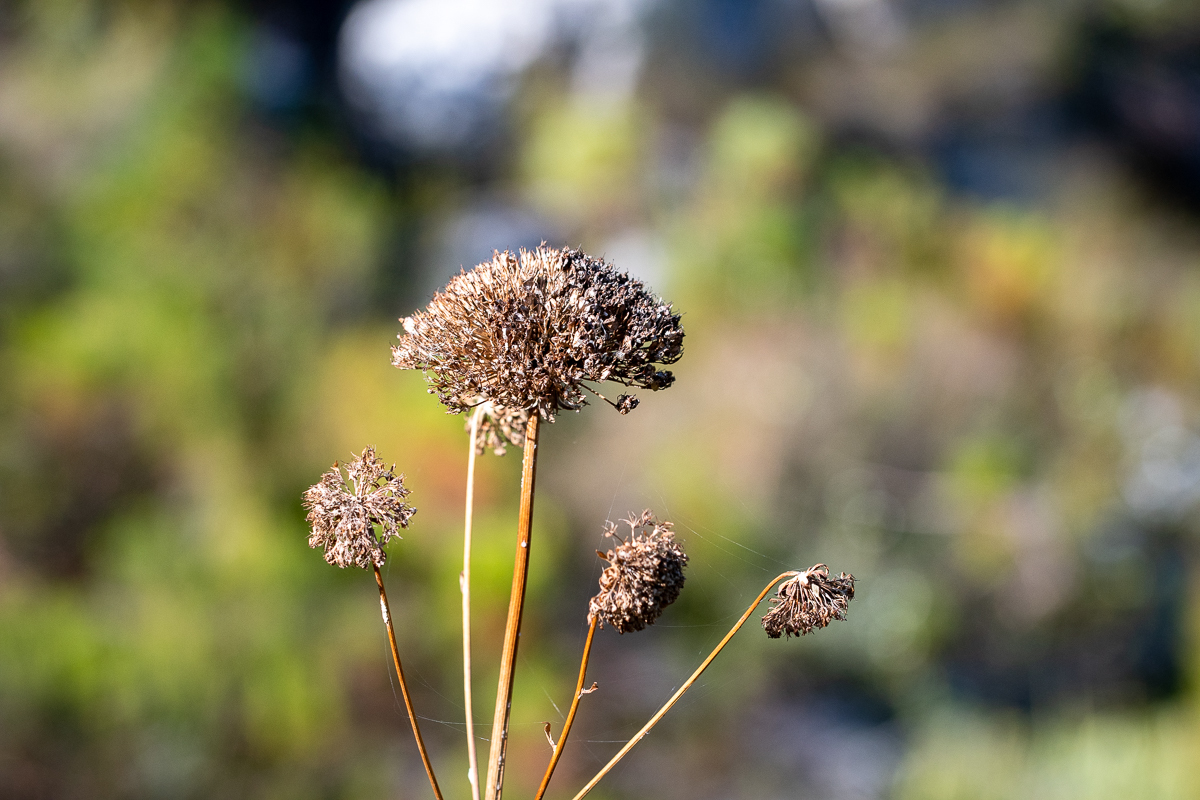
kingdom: Plantae
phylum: Tracheophyta
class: Magnoliopsida
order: Apiales
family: Apiaceae
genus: Hermas
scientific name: Hermas villosa
